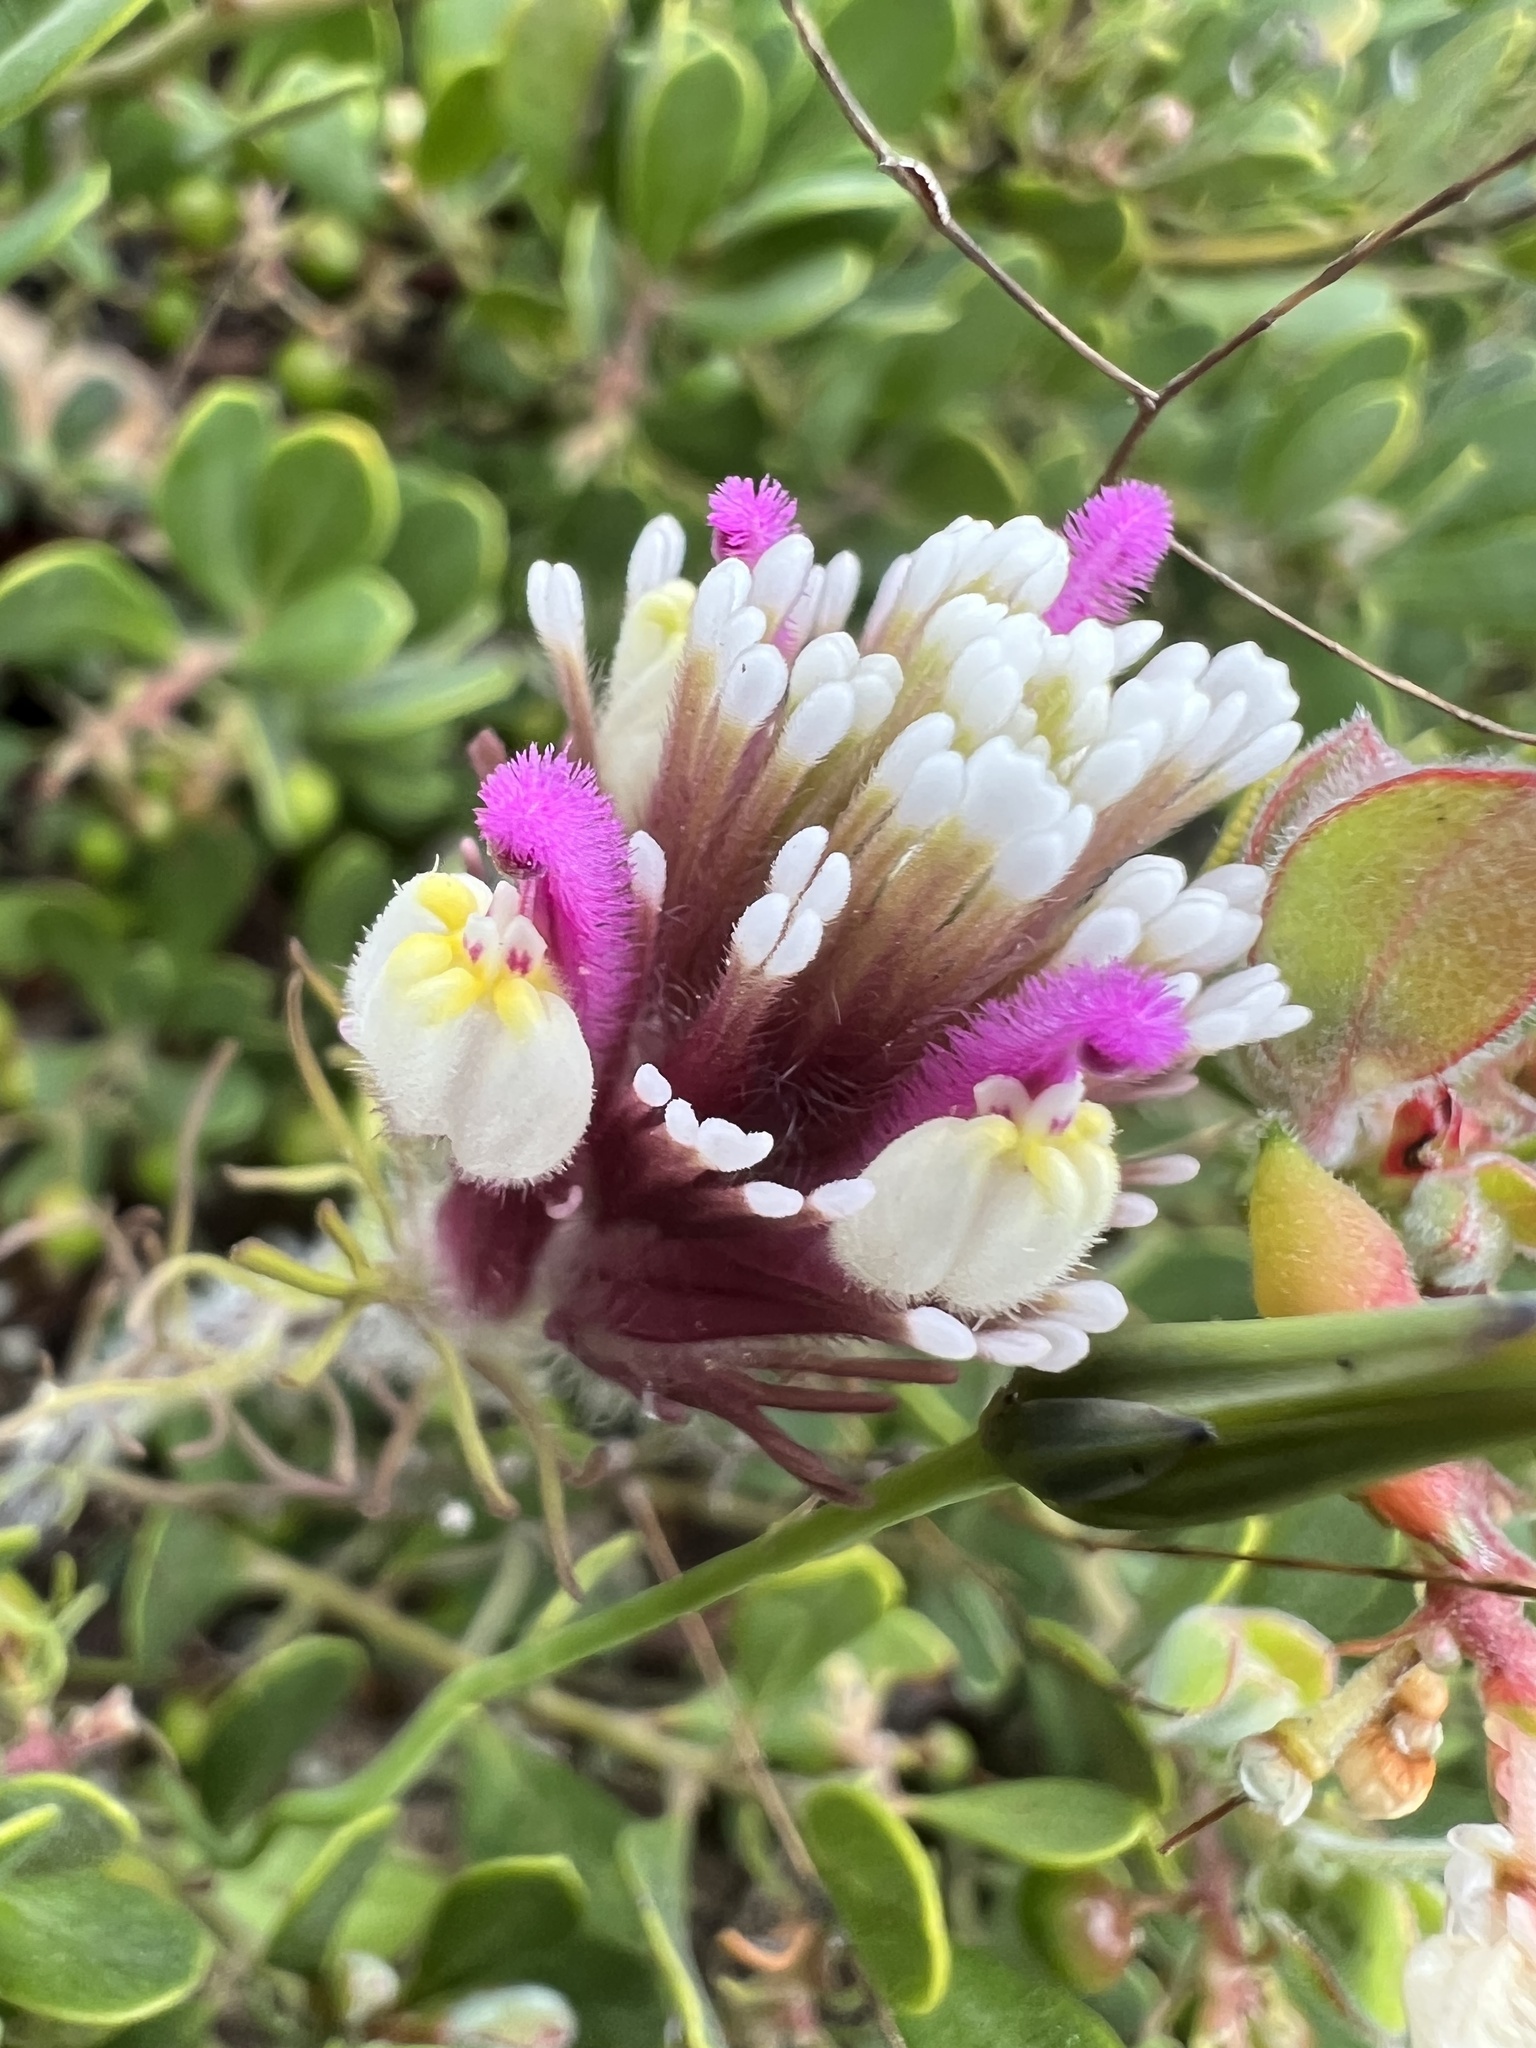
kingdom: Plantae
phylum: Tracheophyta
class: Magnoliopsida
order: Lamiales
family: Orobanchaceae
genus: Castilleja
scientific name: Castilleja exserta
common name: Purple owl-clover
